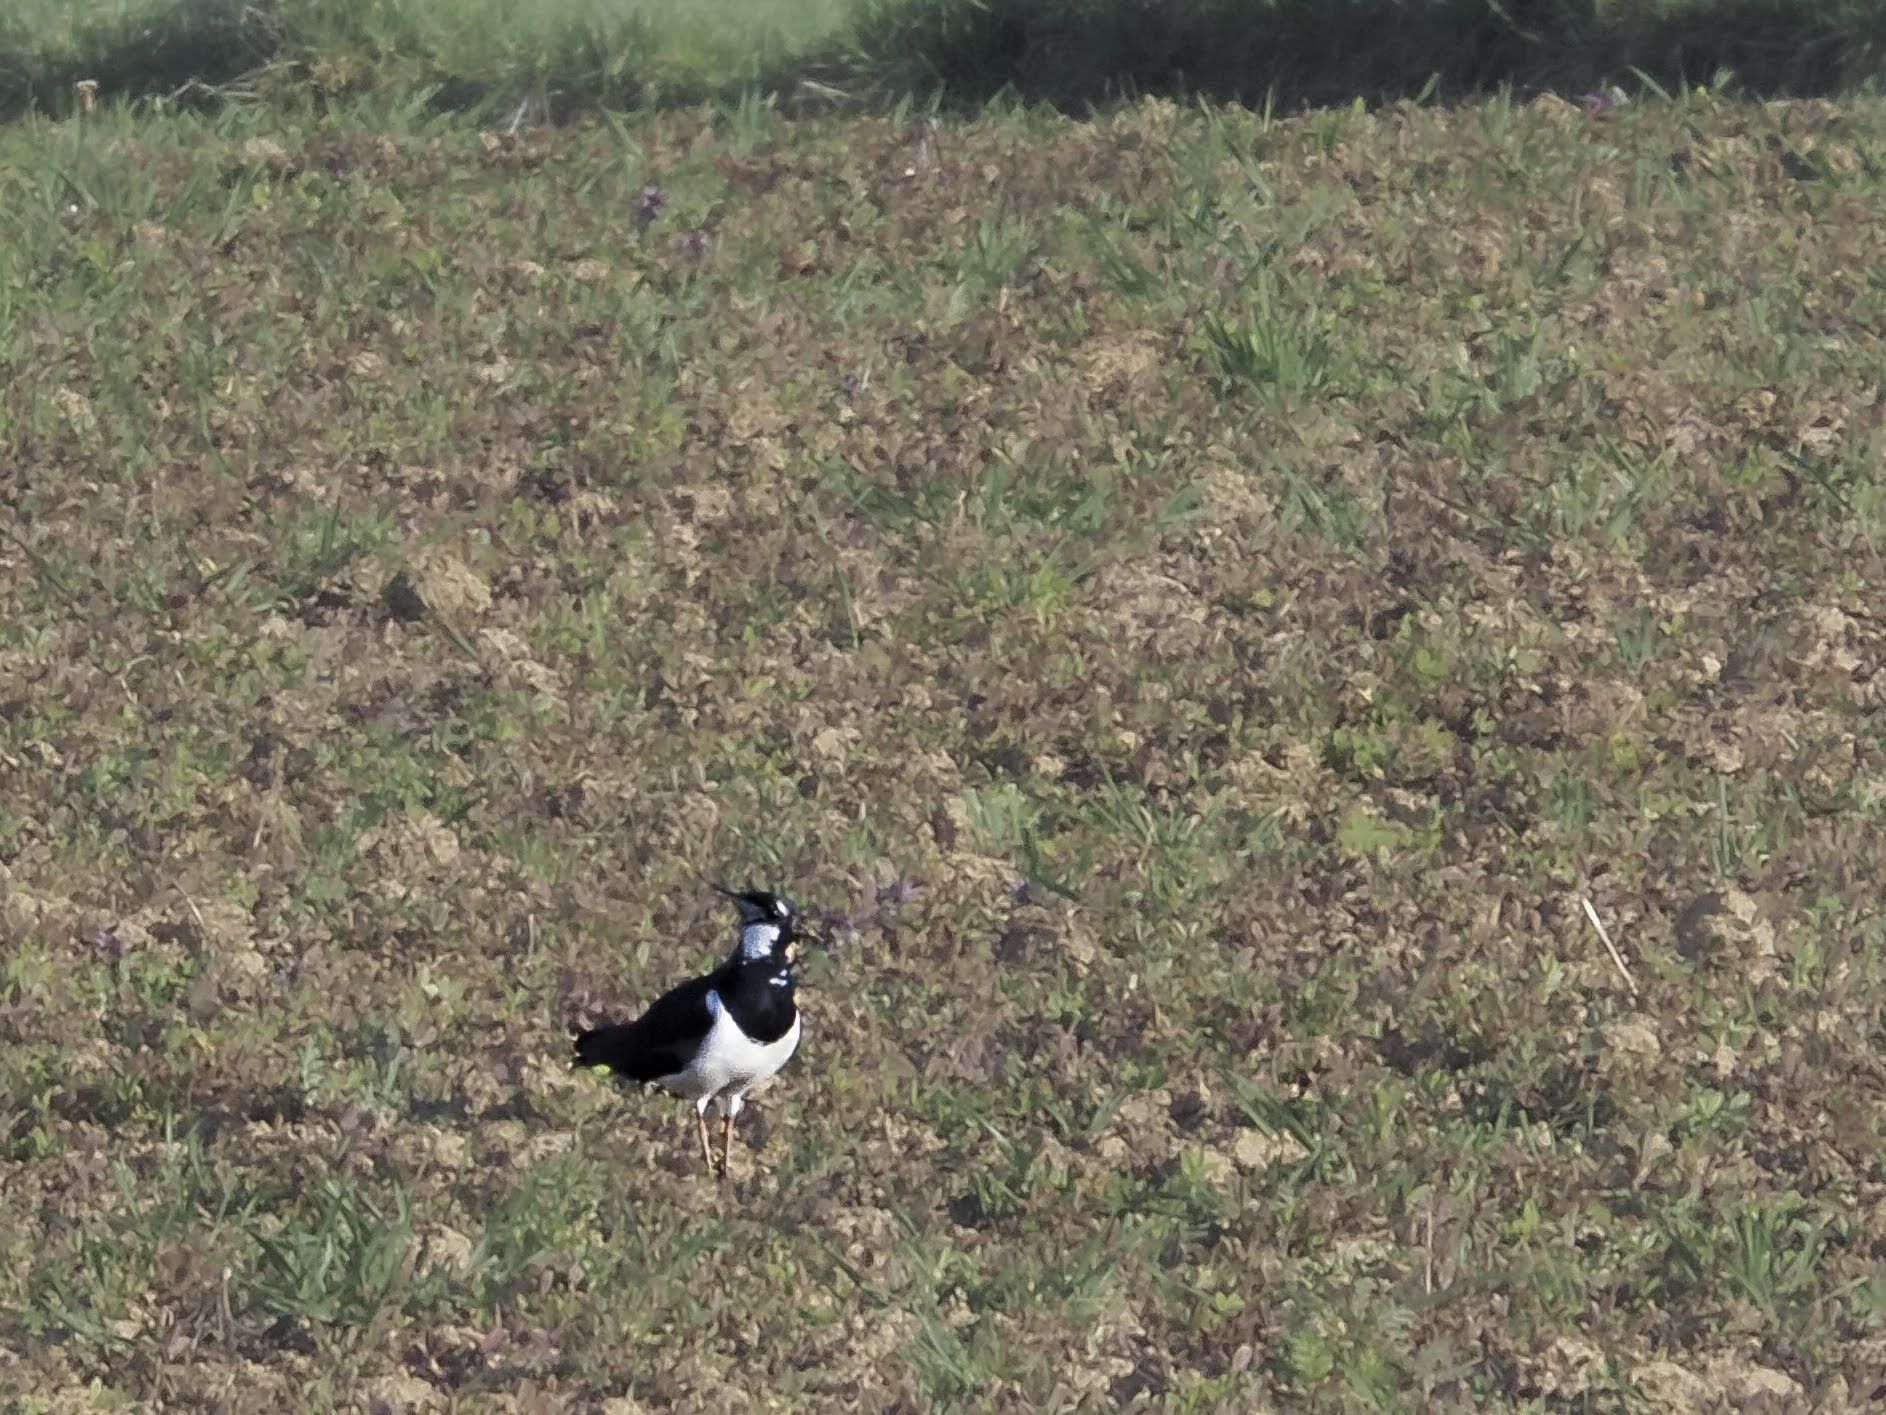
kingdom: Animalia
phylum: Chordata
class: Aves
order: Charadriiformes
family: Charadriidae
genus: Vanellus
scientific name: Vanellus vanellus
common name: Northern lapwing
